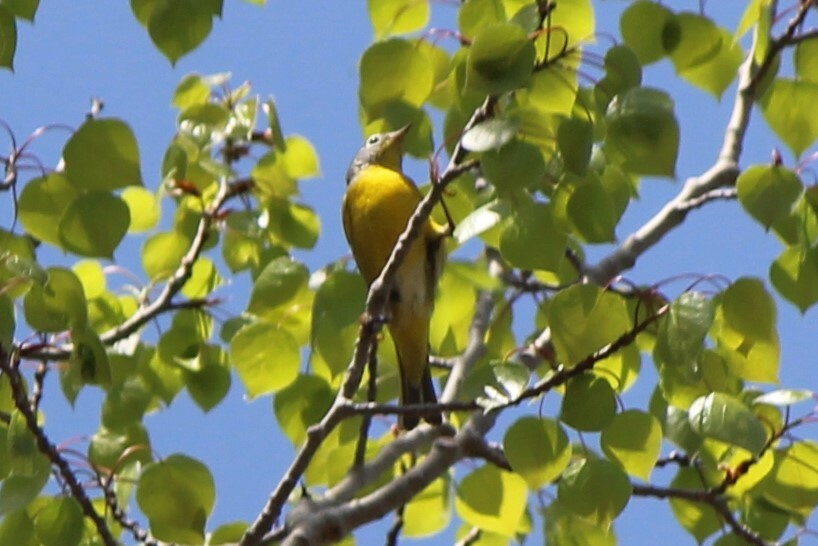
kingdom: Animalia
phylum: Chordata
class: Aves
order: Passeriformes
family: Parulidae
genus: Leiothlypis
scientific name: Leiothlypis ruficapilla
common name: Nashville warbler
